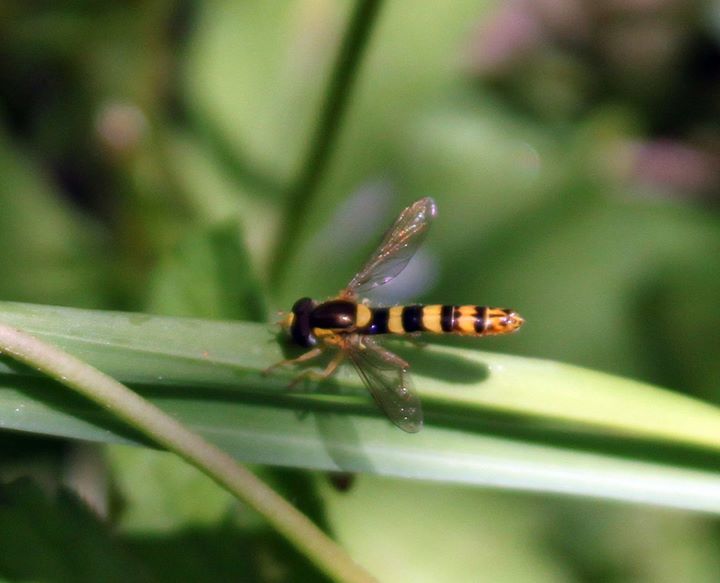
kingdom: Animalia
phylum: Arthropoda
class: Insecta
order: Diptera
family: Syrphidae
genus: Sphaerophoria
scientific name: Sphaerophoria scripta
